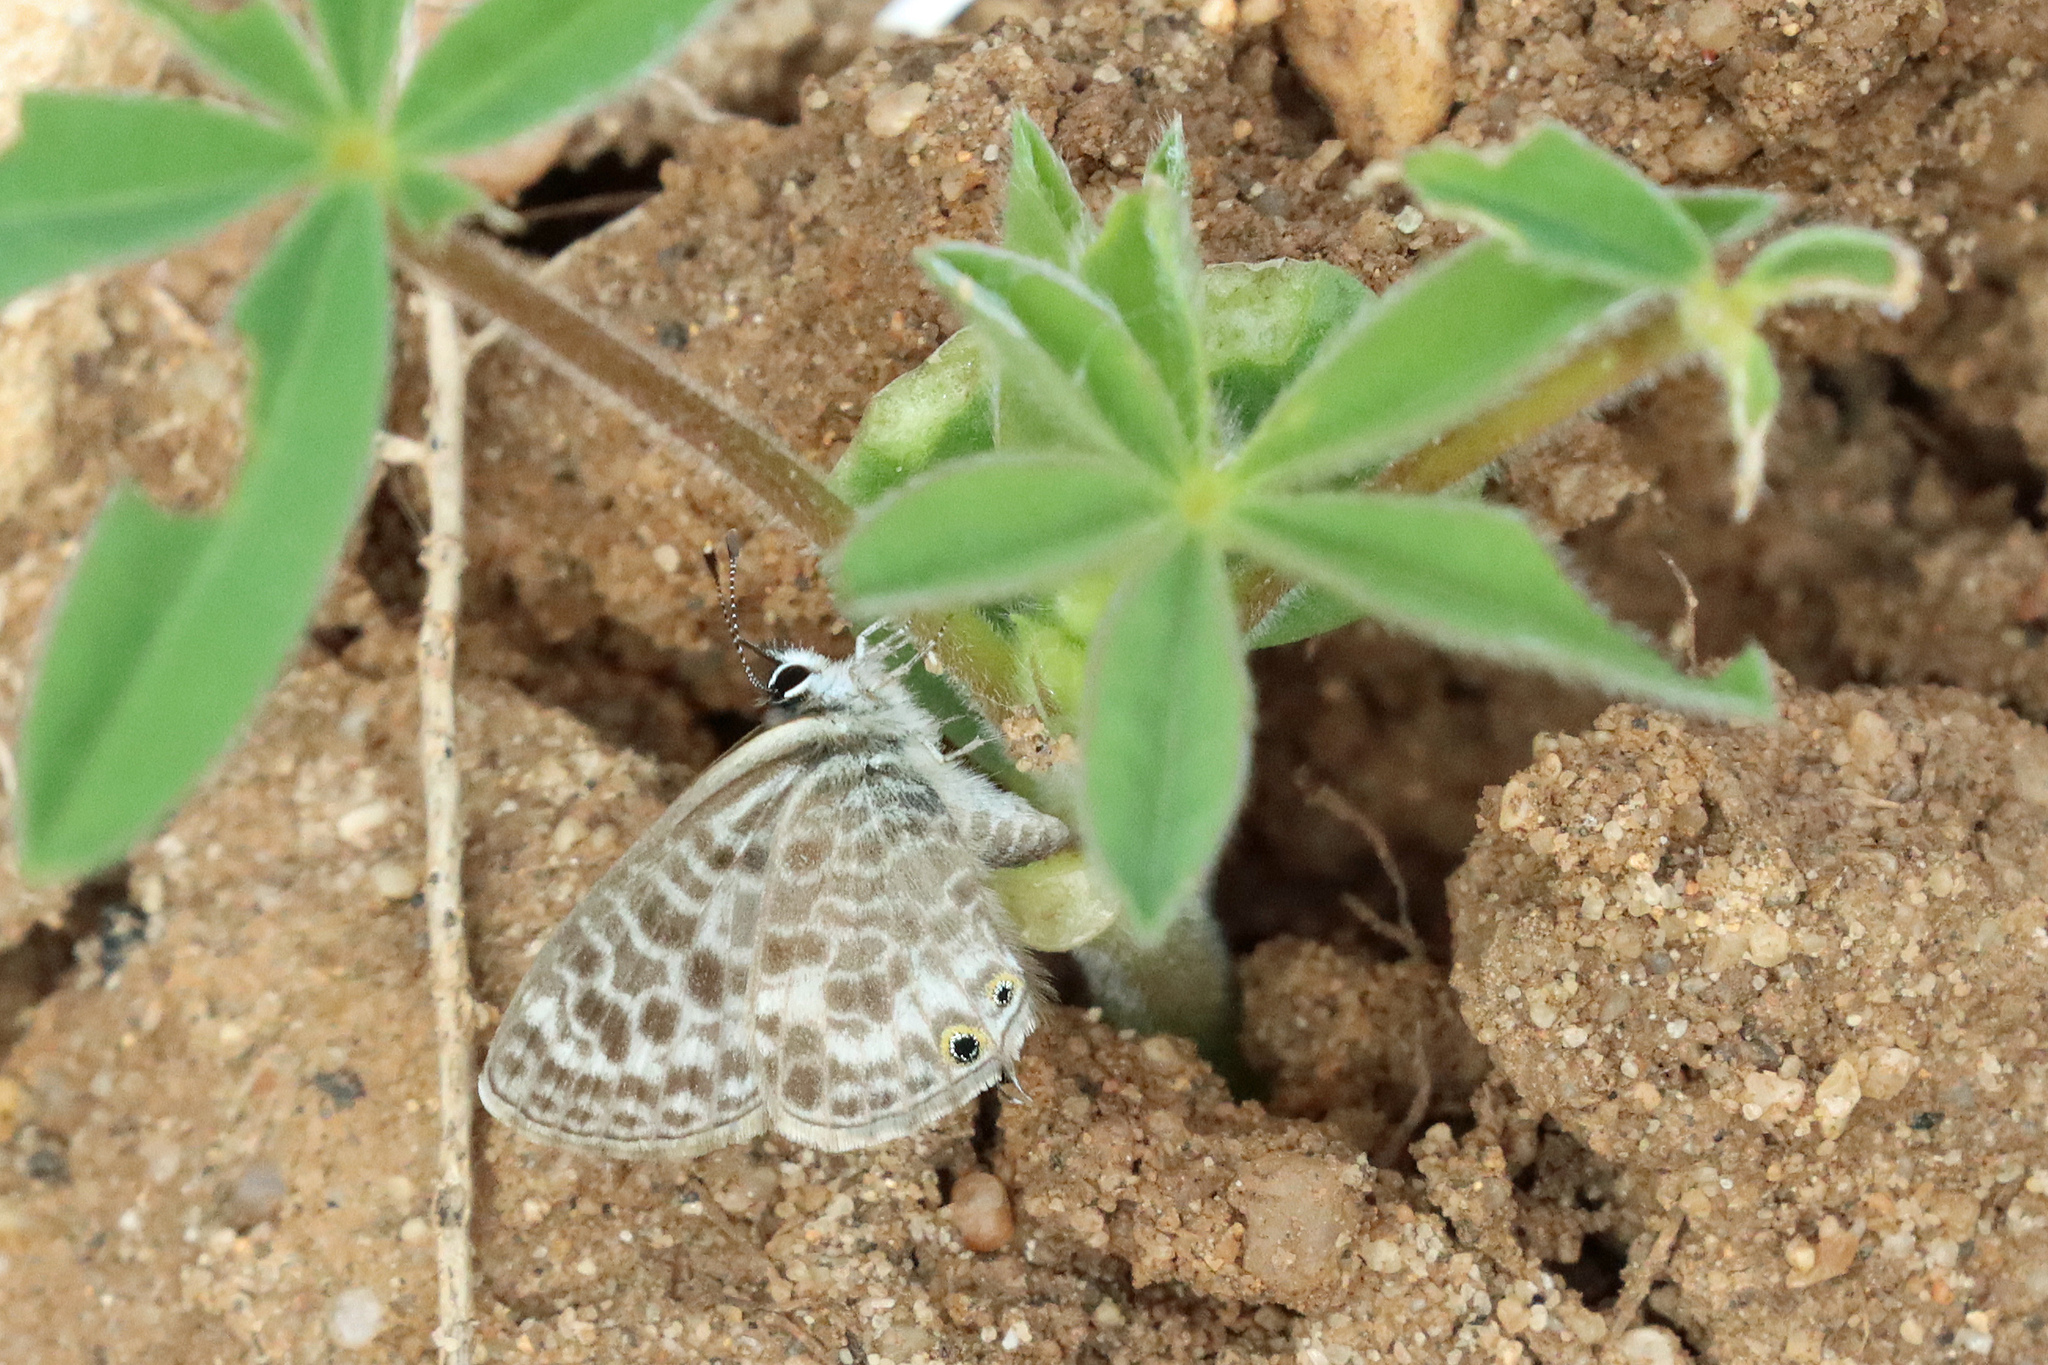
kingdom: Animalia
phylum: Arthropoda
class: Insecta
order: Lepidoptera
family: Lycaenidae
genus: Leptotes
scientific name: Leptotes pirithous
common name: Lang's short-tailed blue
